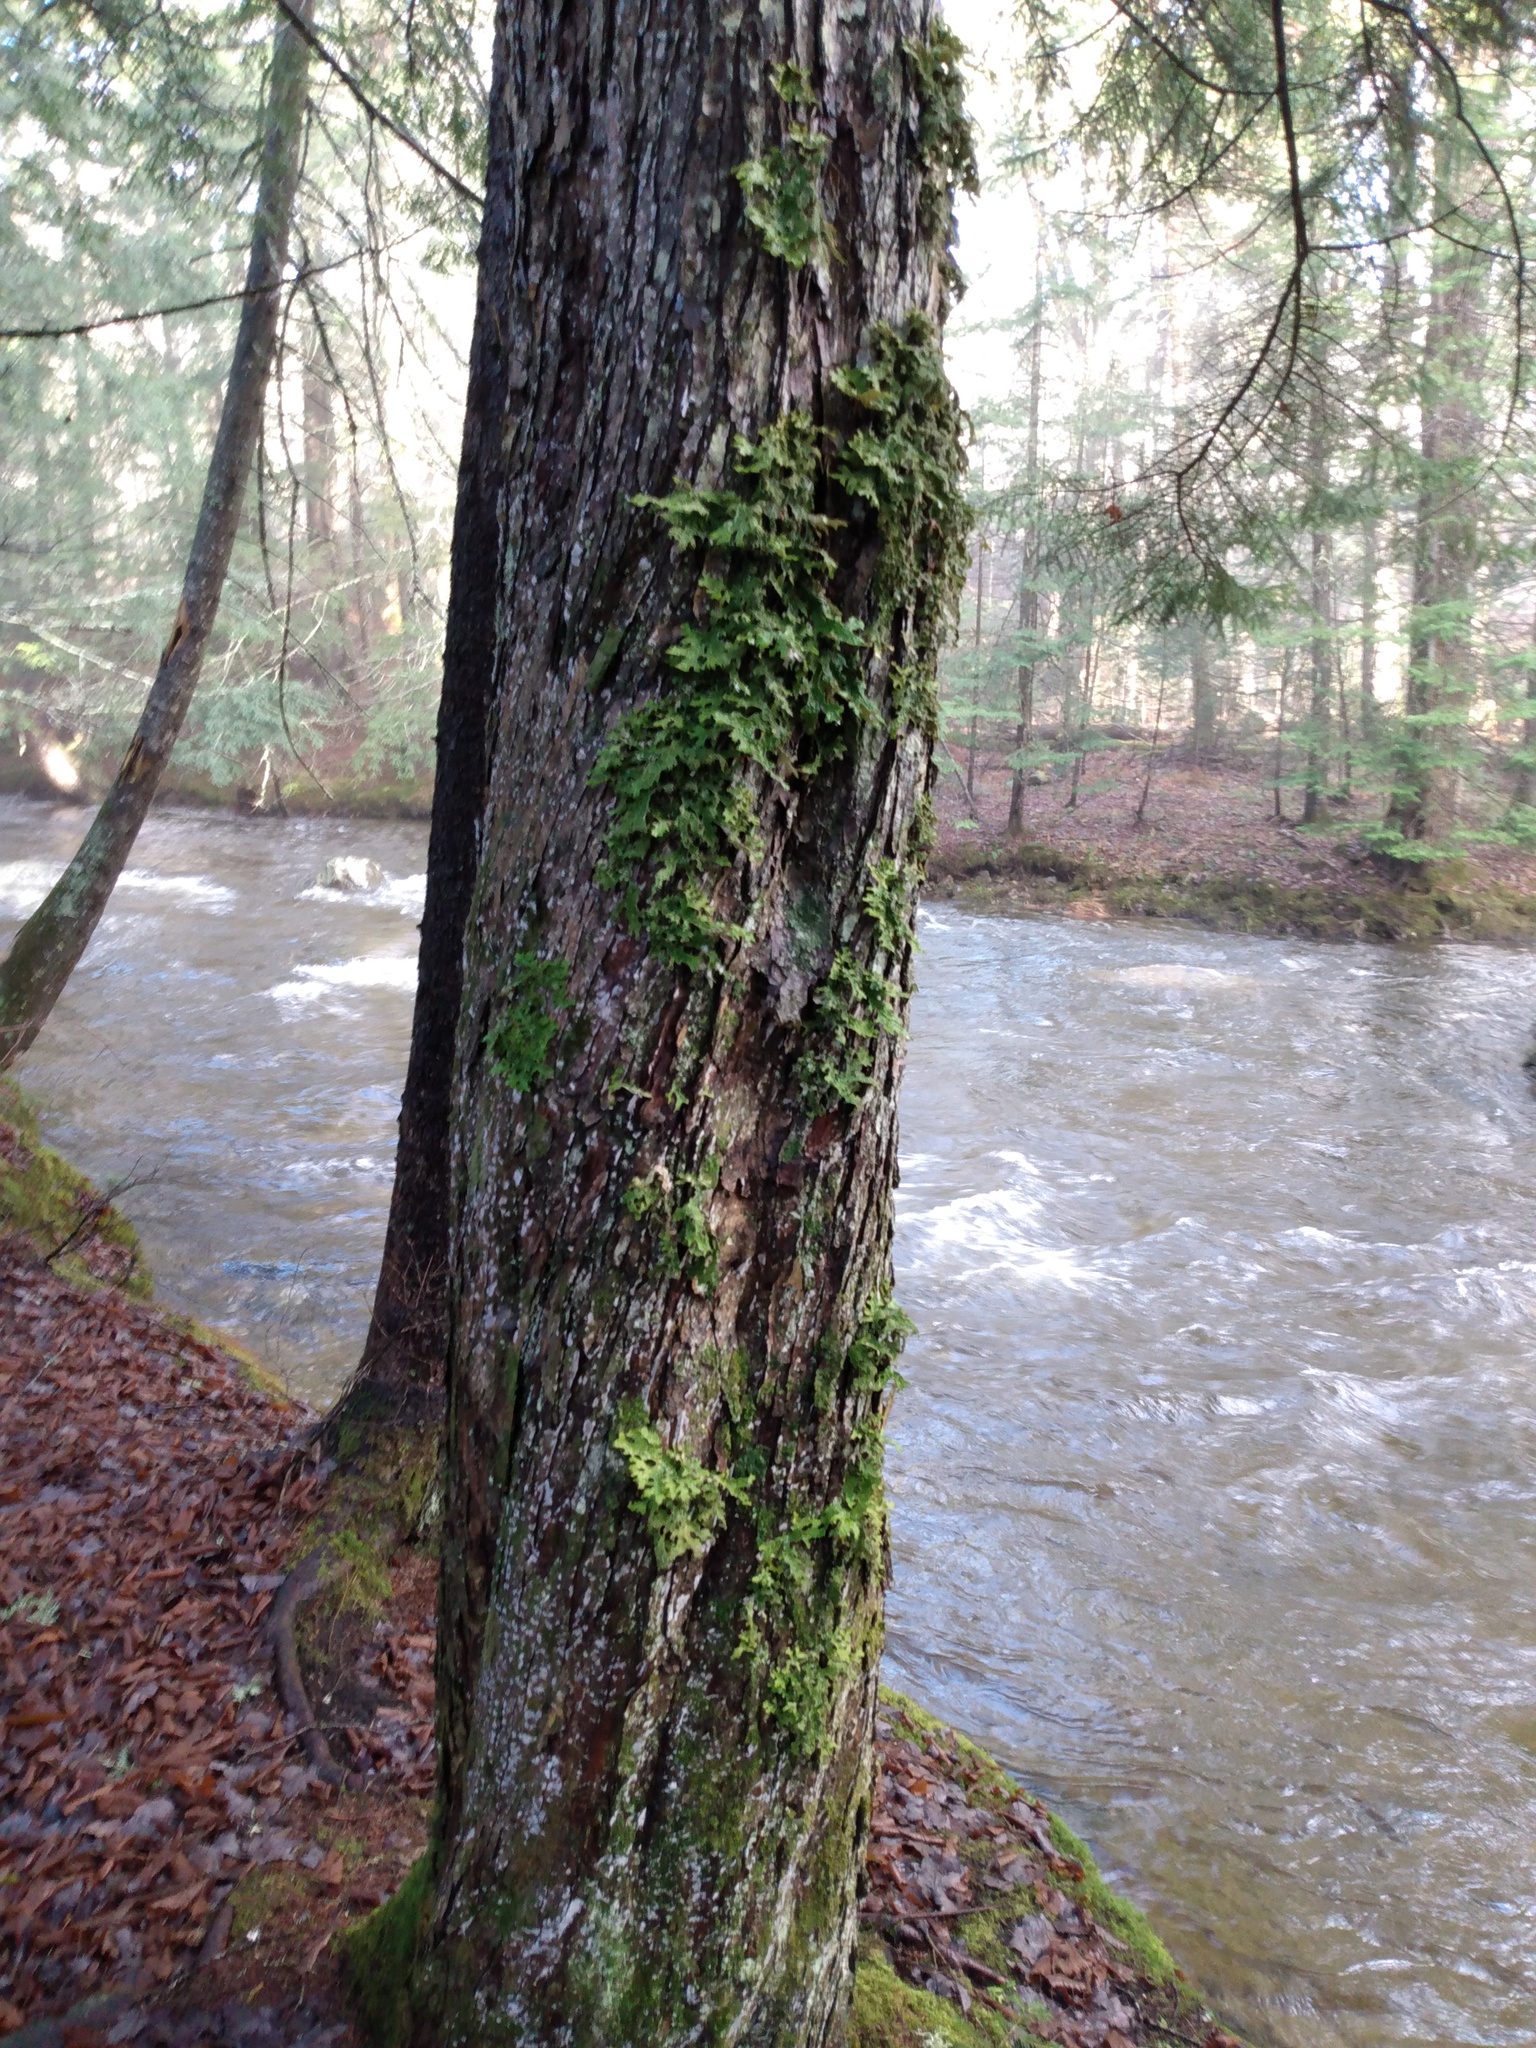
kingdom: Fungi
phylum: Ascomycota
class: Lecanoromycetes
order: Peltigerales
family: Lobariaceae
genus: Lobaria
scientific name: Lobaria pulmonaria
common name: Lungwort
